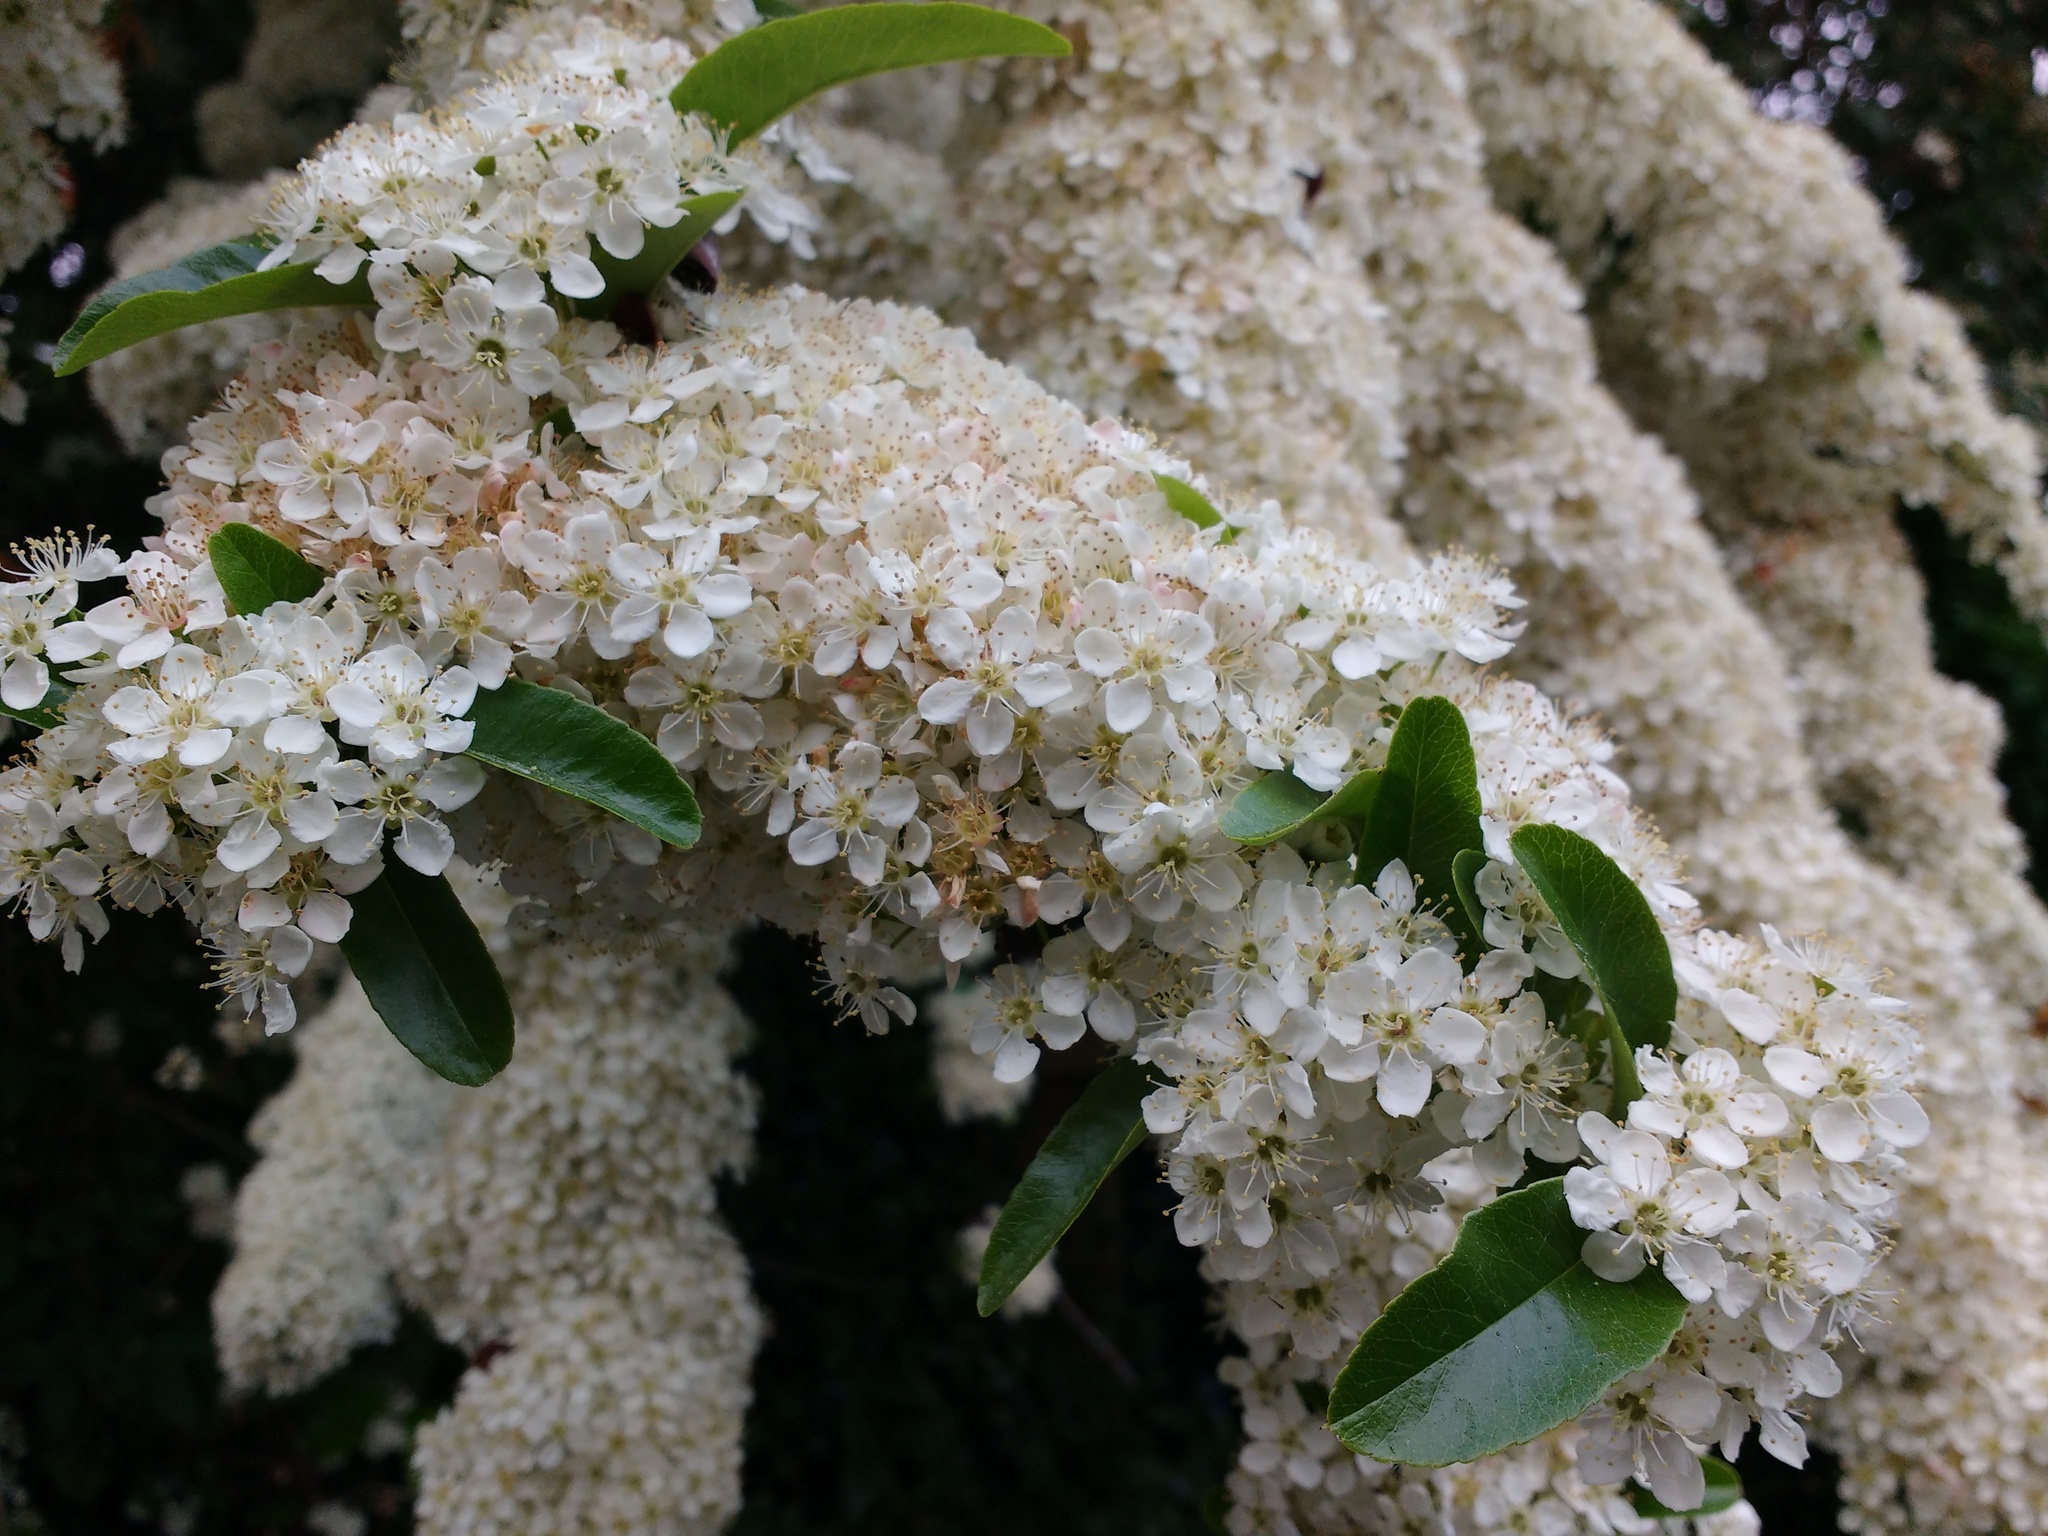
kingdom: Plantae
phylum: Tracheophyta
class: Magnoliopsida
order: Rosales
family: Rosaceae
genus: Pyracantha
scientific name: Pyracantha coccinea
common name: Firethorn
